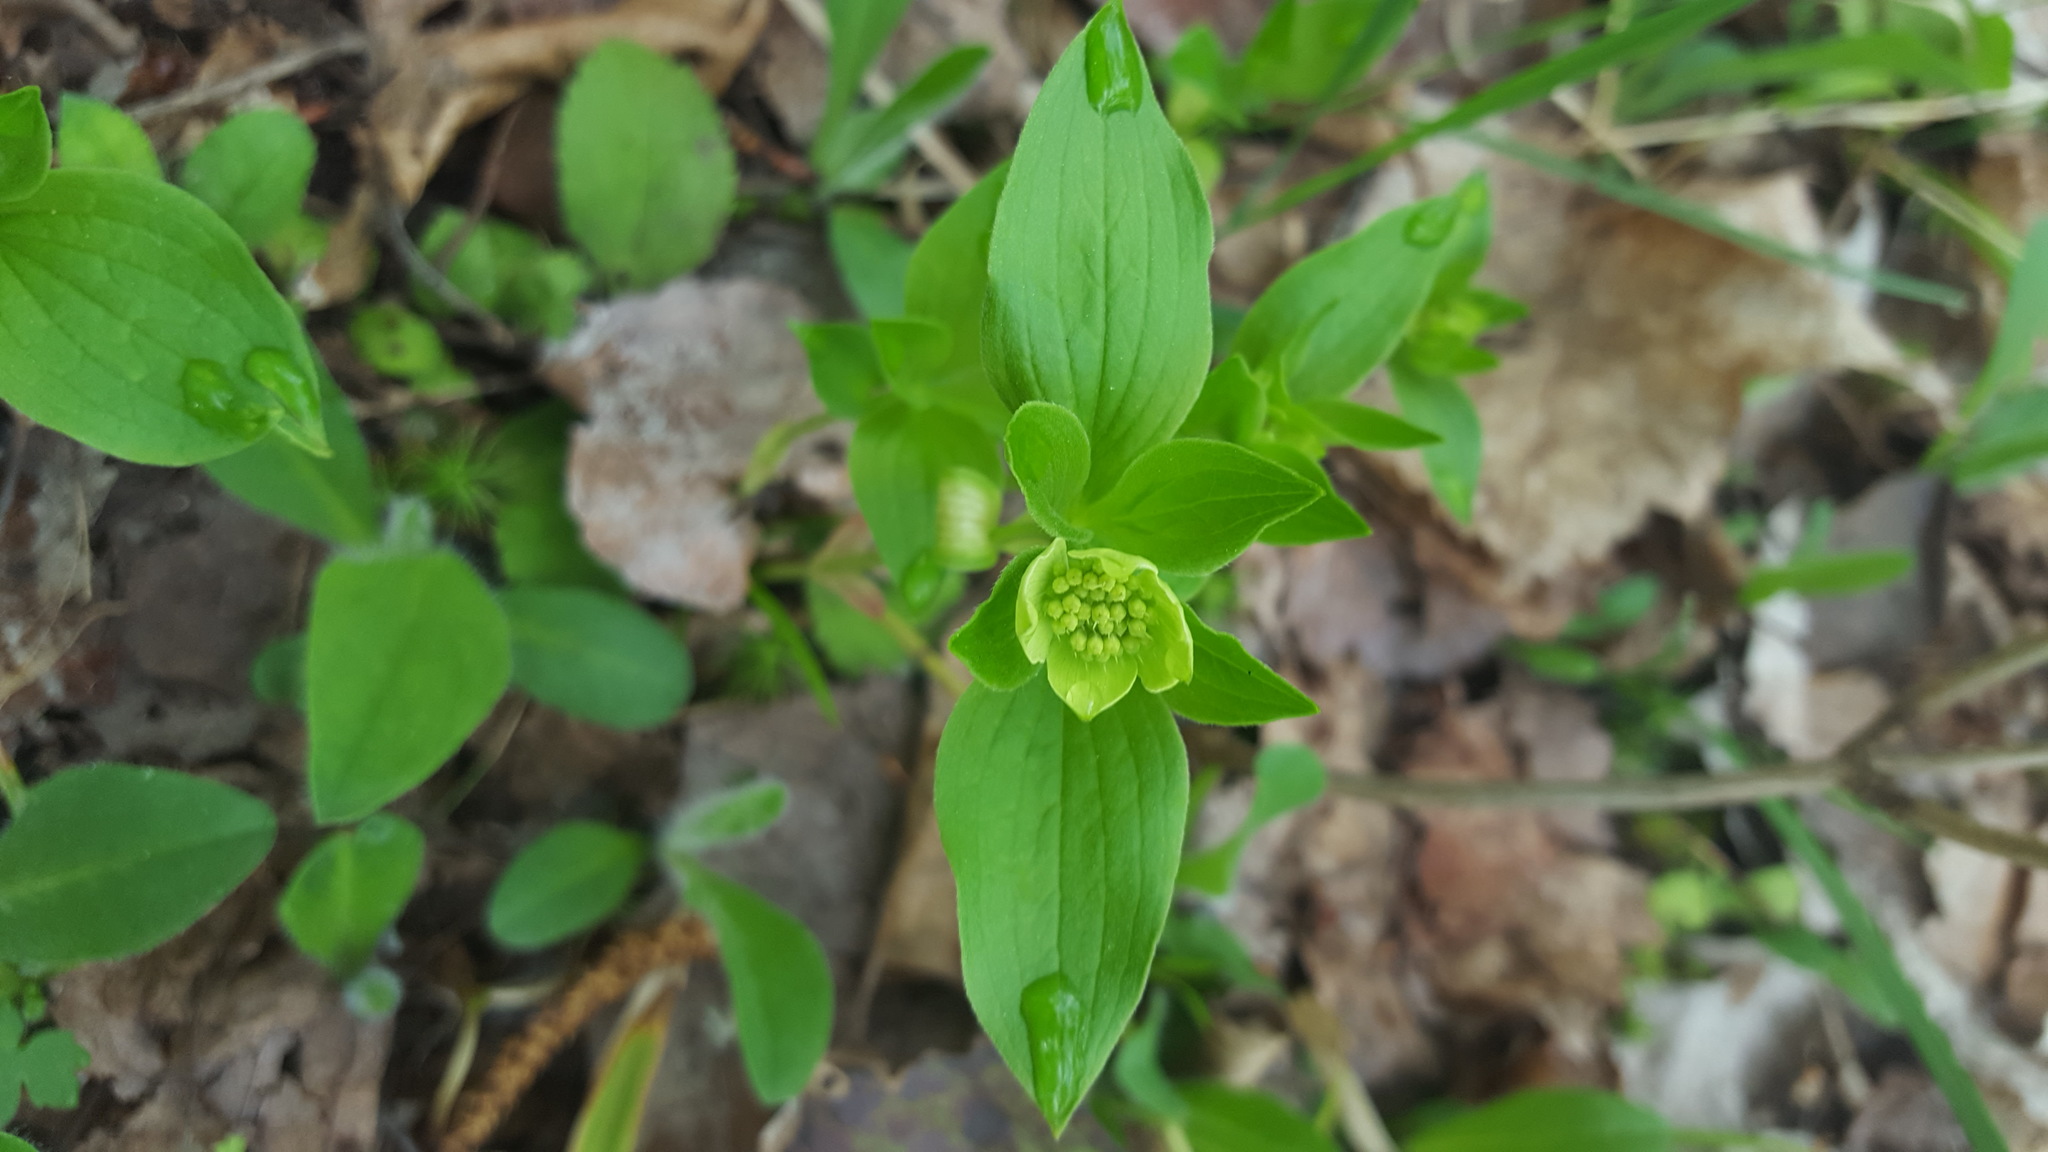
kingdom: Plantae
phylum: Tracheophyta
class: Magnoliopsida
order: Cornales
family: Cornaceae
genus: Cornus
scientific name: Cornus canadensis
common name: Creeping dogwood
